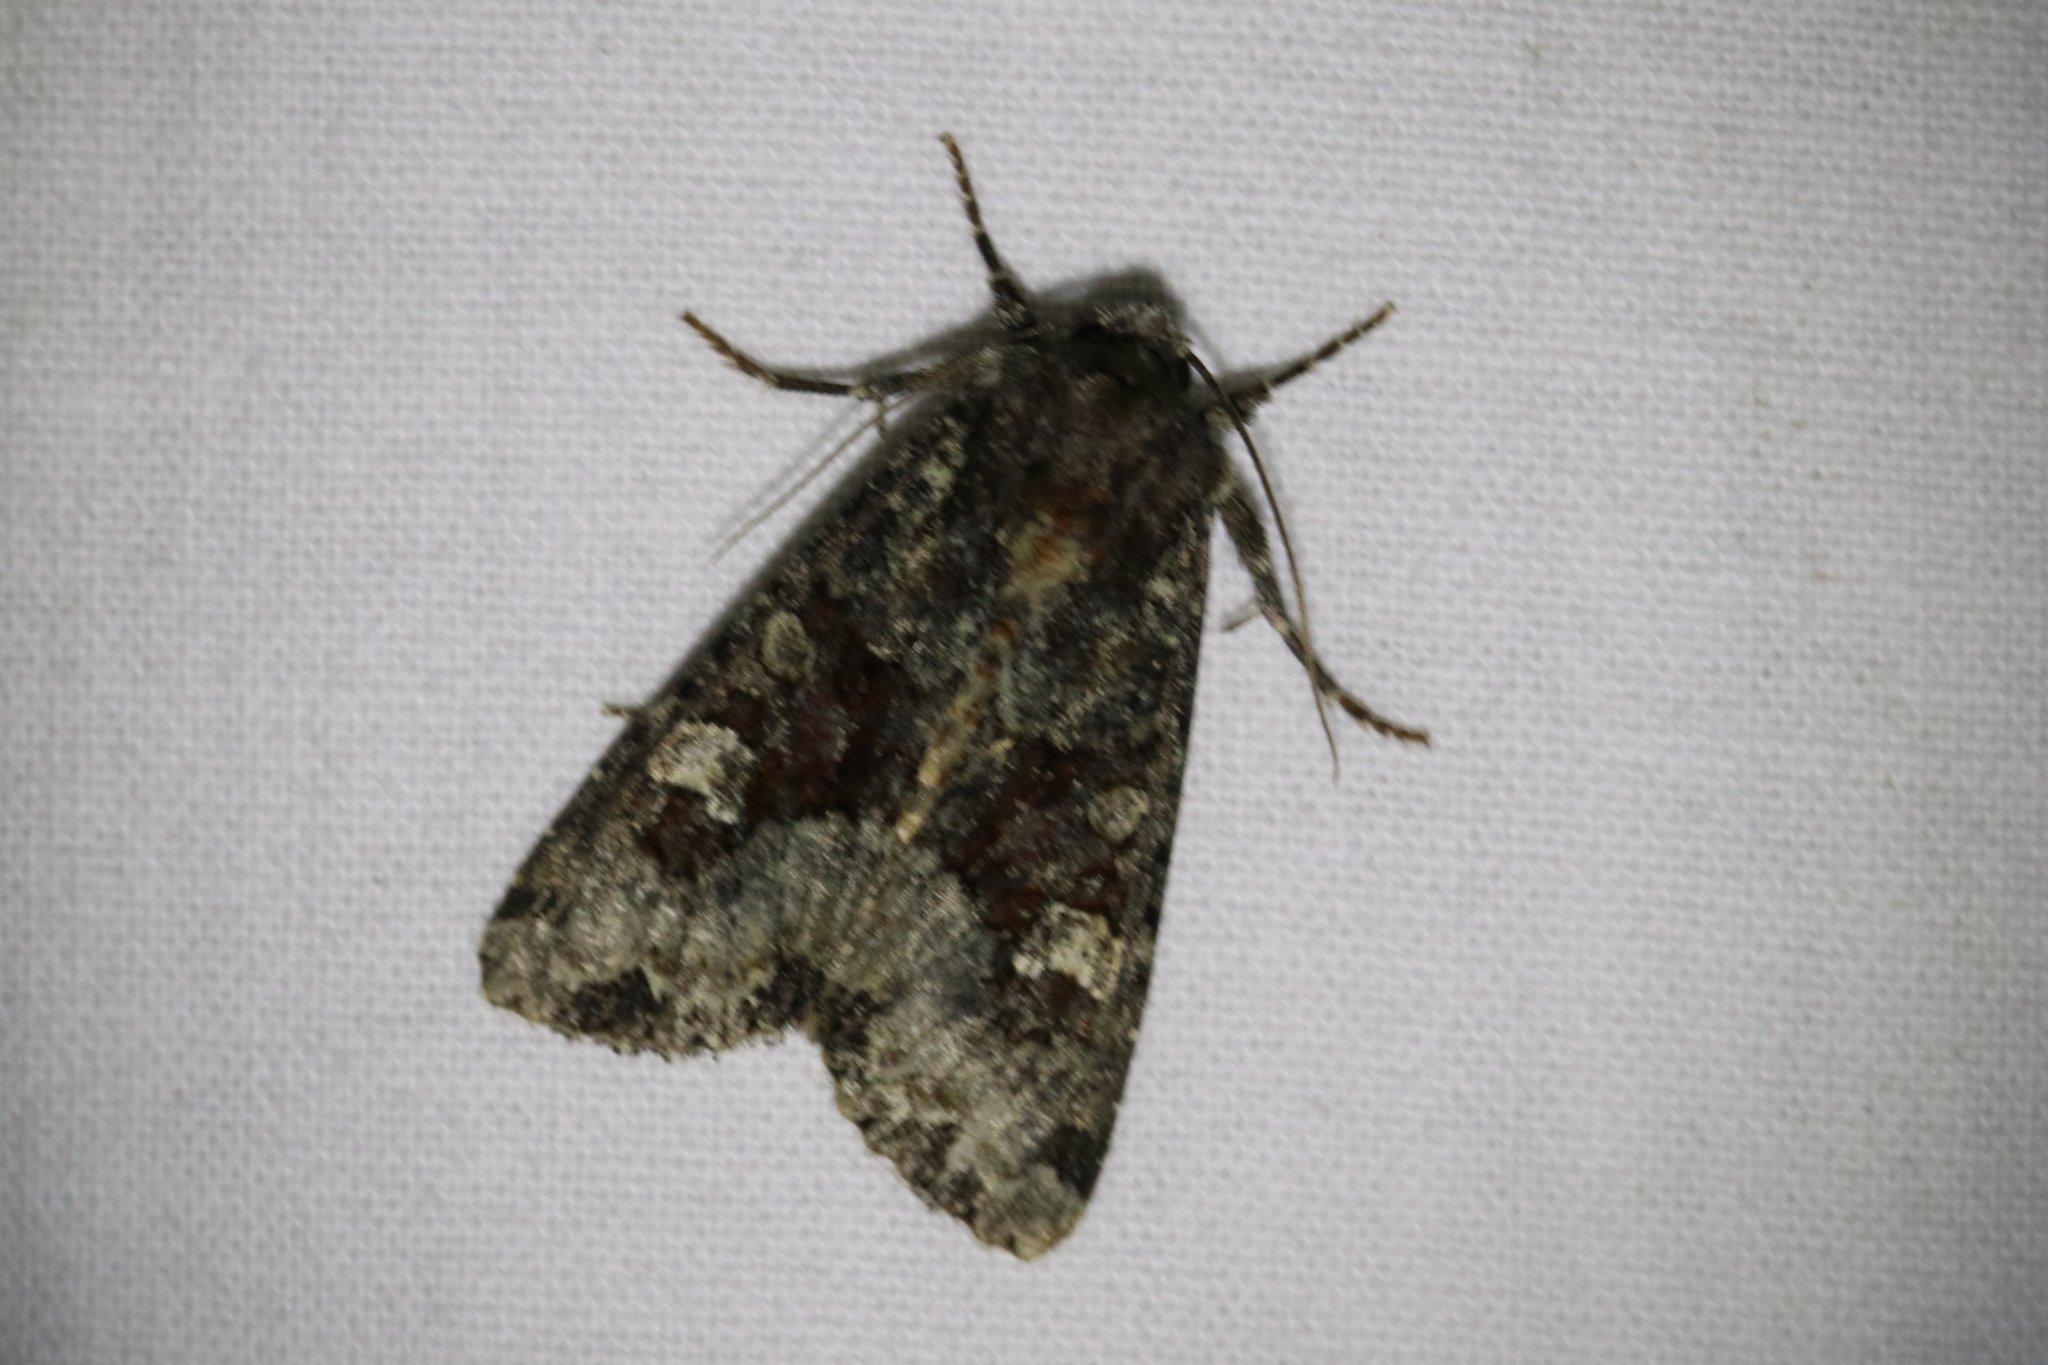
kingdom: Animalia
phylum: Arthropoda
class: Insecta
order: Lepidoptera
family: Noctuidae
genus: Apamea
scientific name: Apamea amputatrix
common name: Yellow-headed cutworm moth
